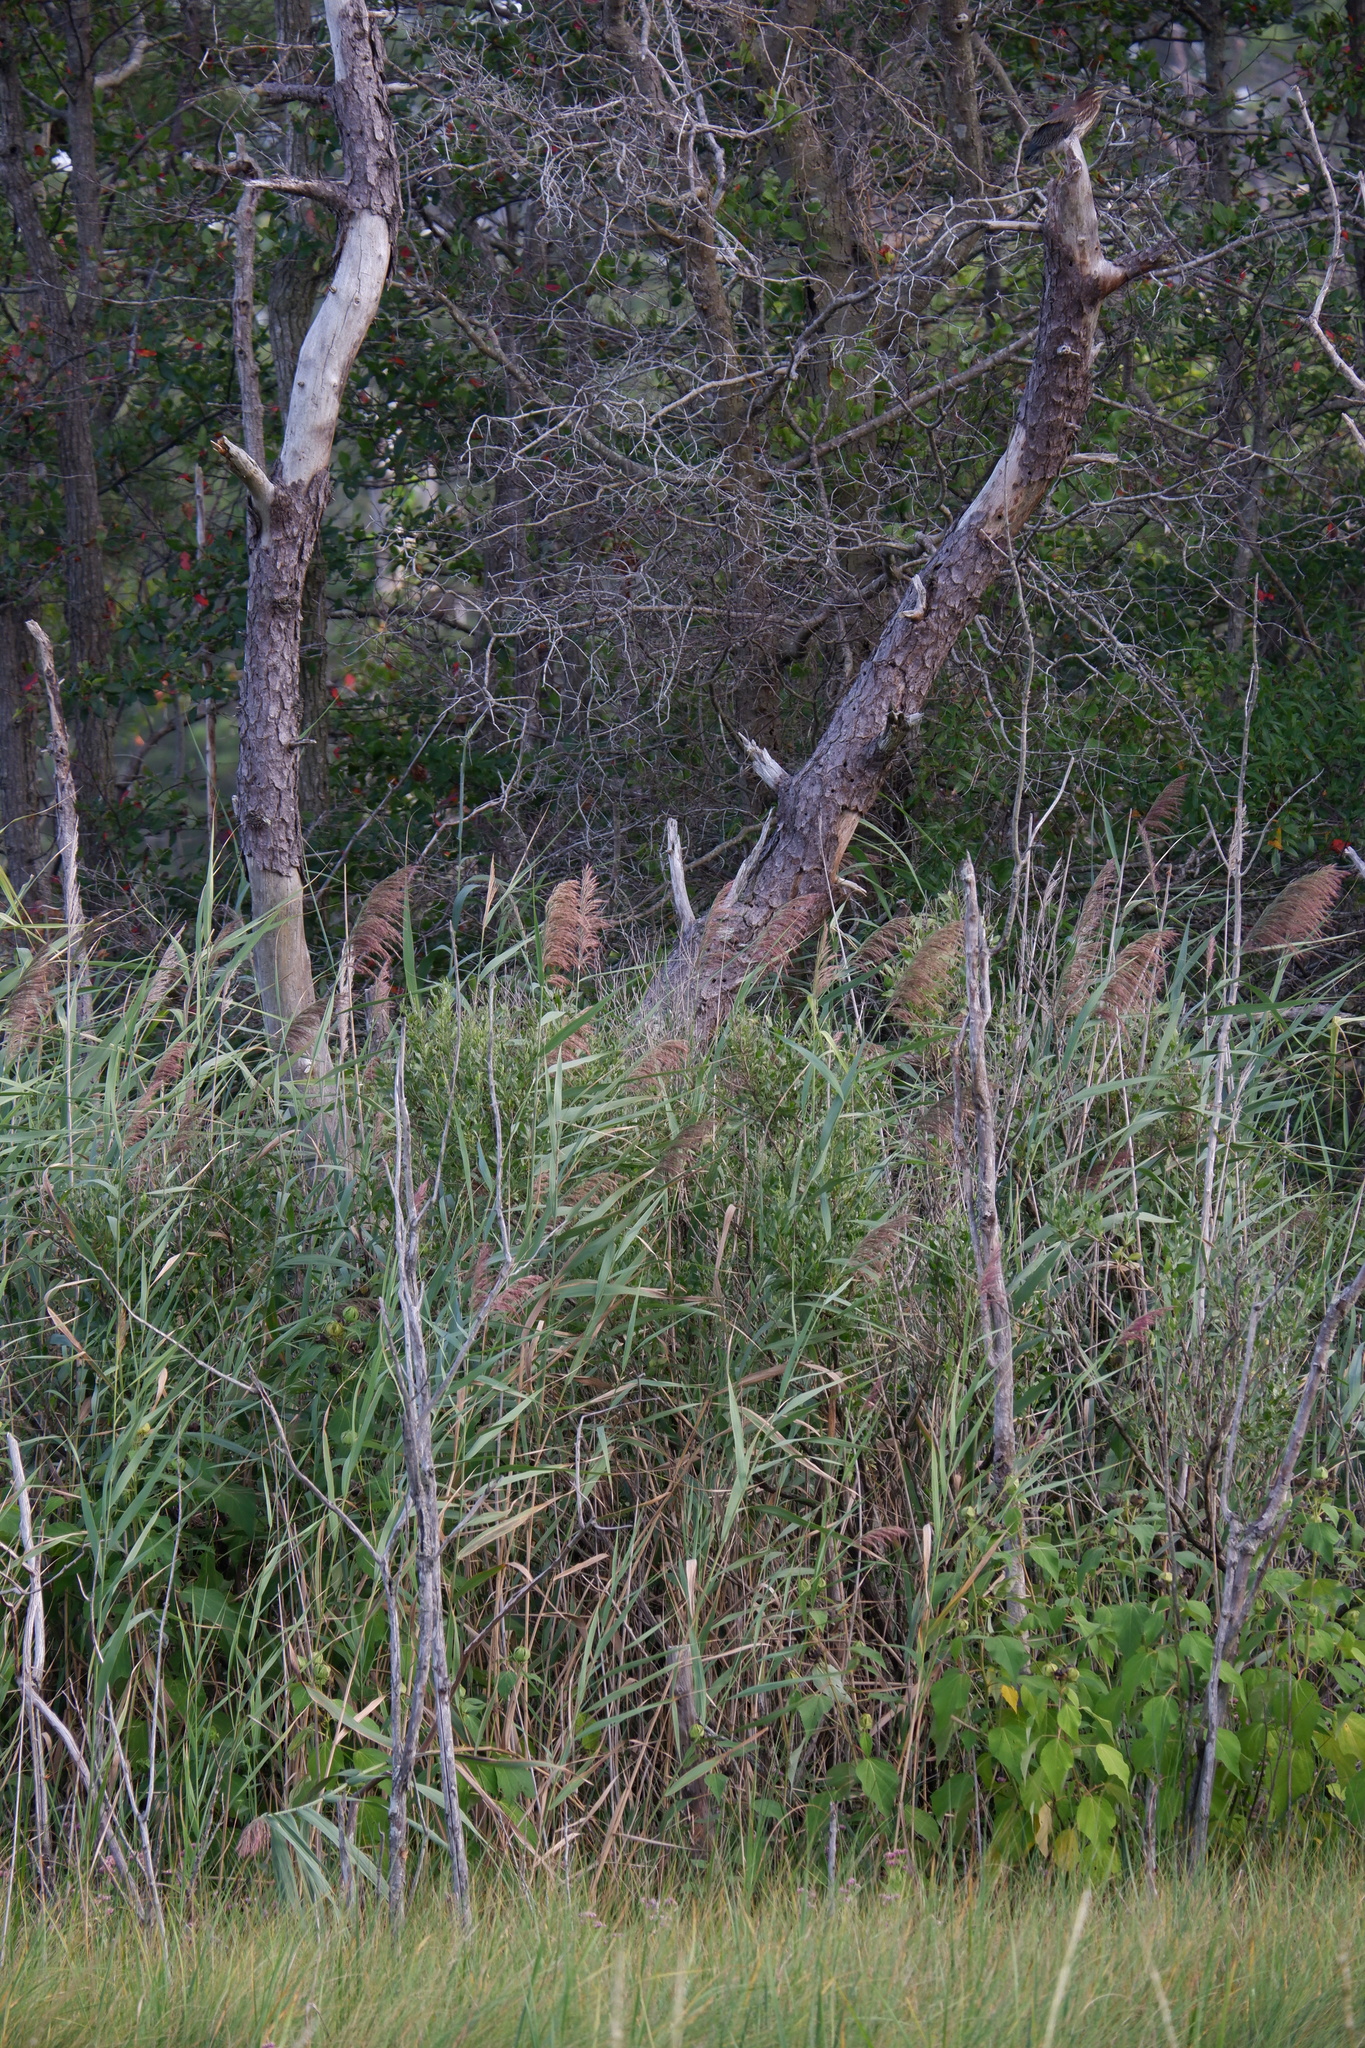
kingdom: Animalia
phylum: Chordata
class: Aves
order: Pelecaniformes
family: Ardeidae
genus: Butorides
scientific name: Butorides virescens
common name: Green heron
